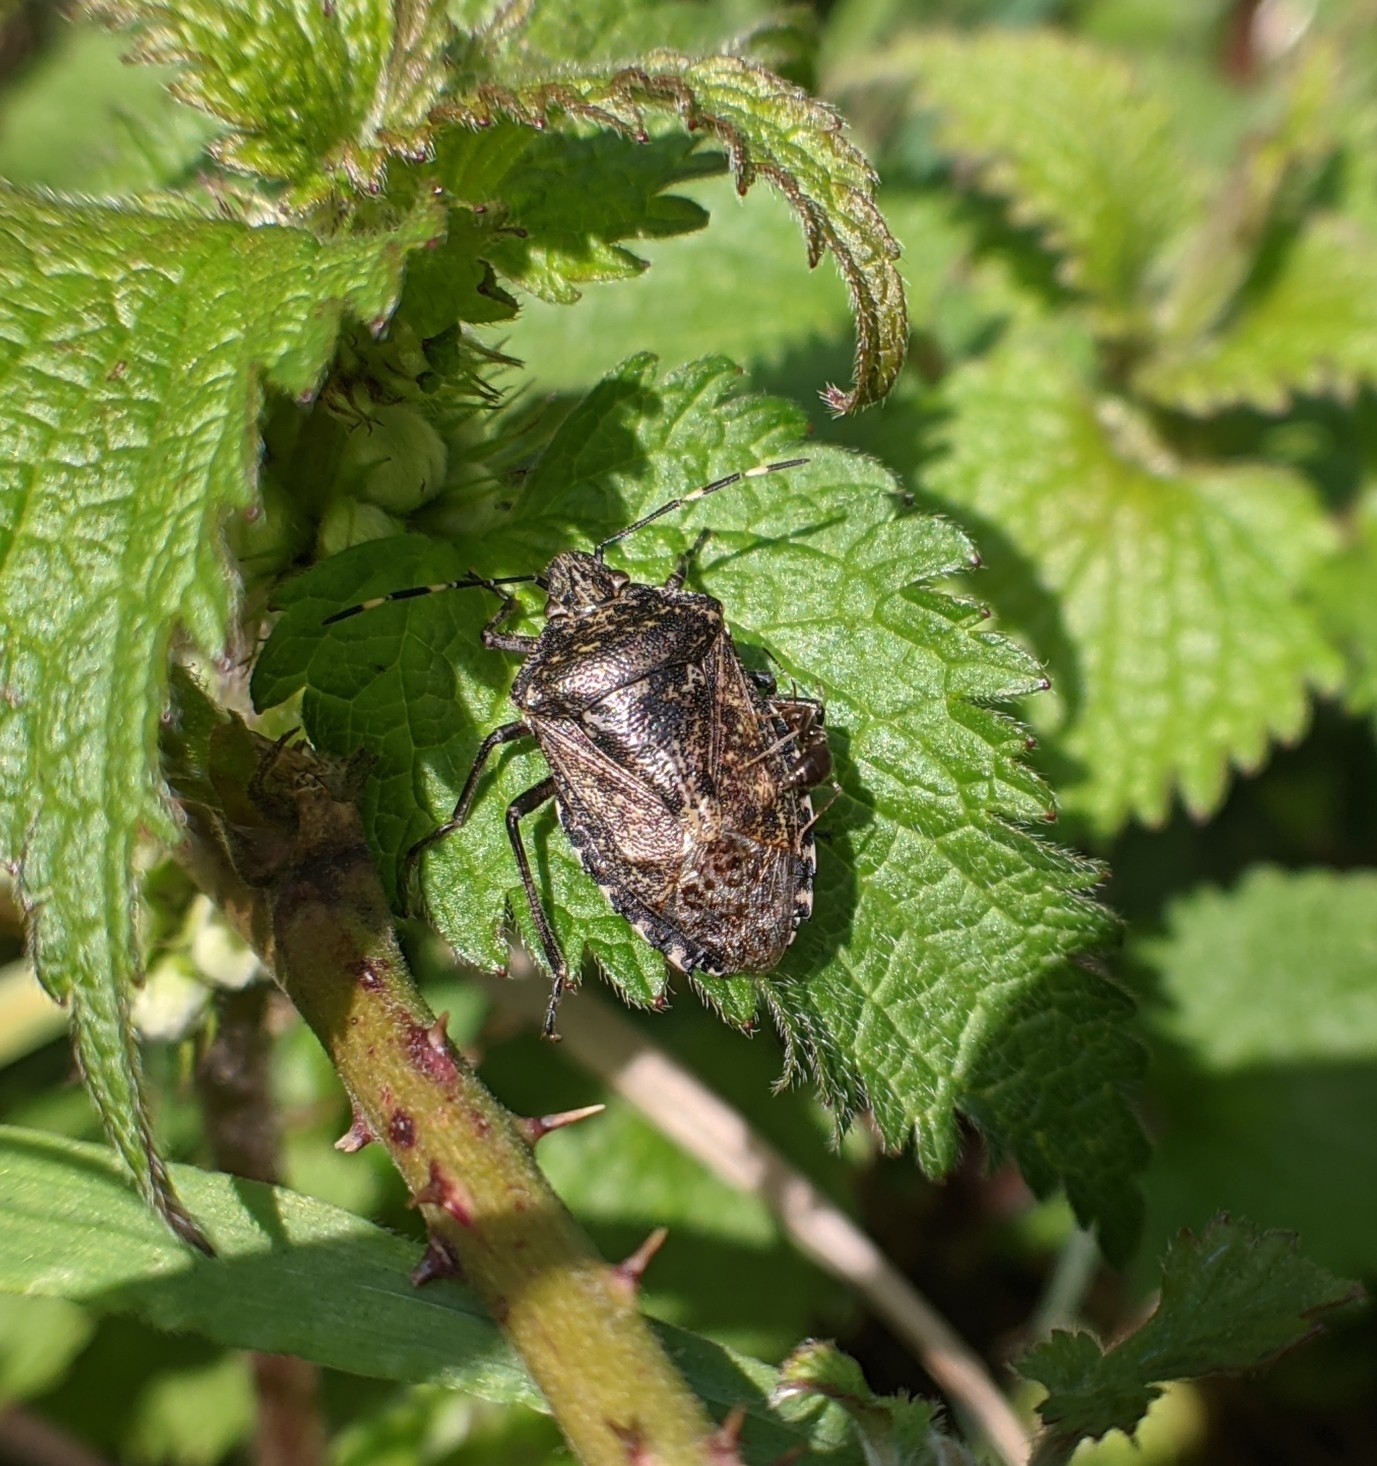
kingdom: Animalia
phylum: Arthropoda
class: Insecta
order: Hemiptera
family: Pentatomidae
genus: Rhaphigaster
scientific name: Rhaphigaster nebulosa
